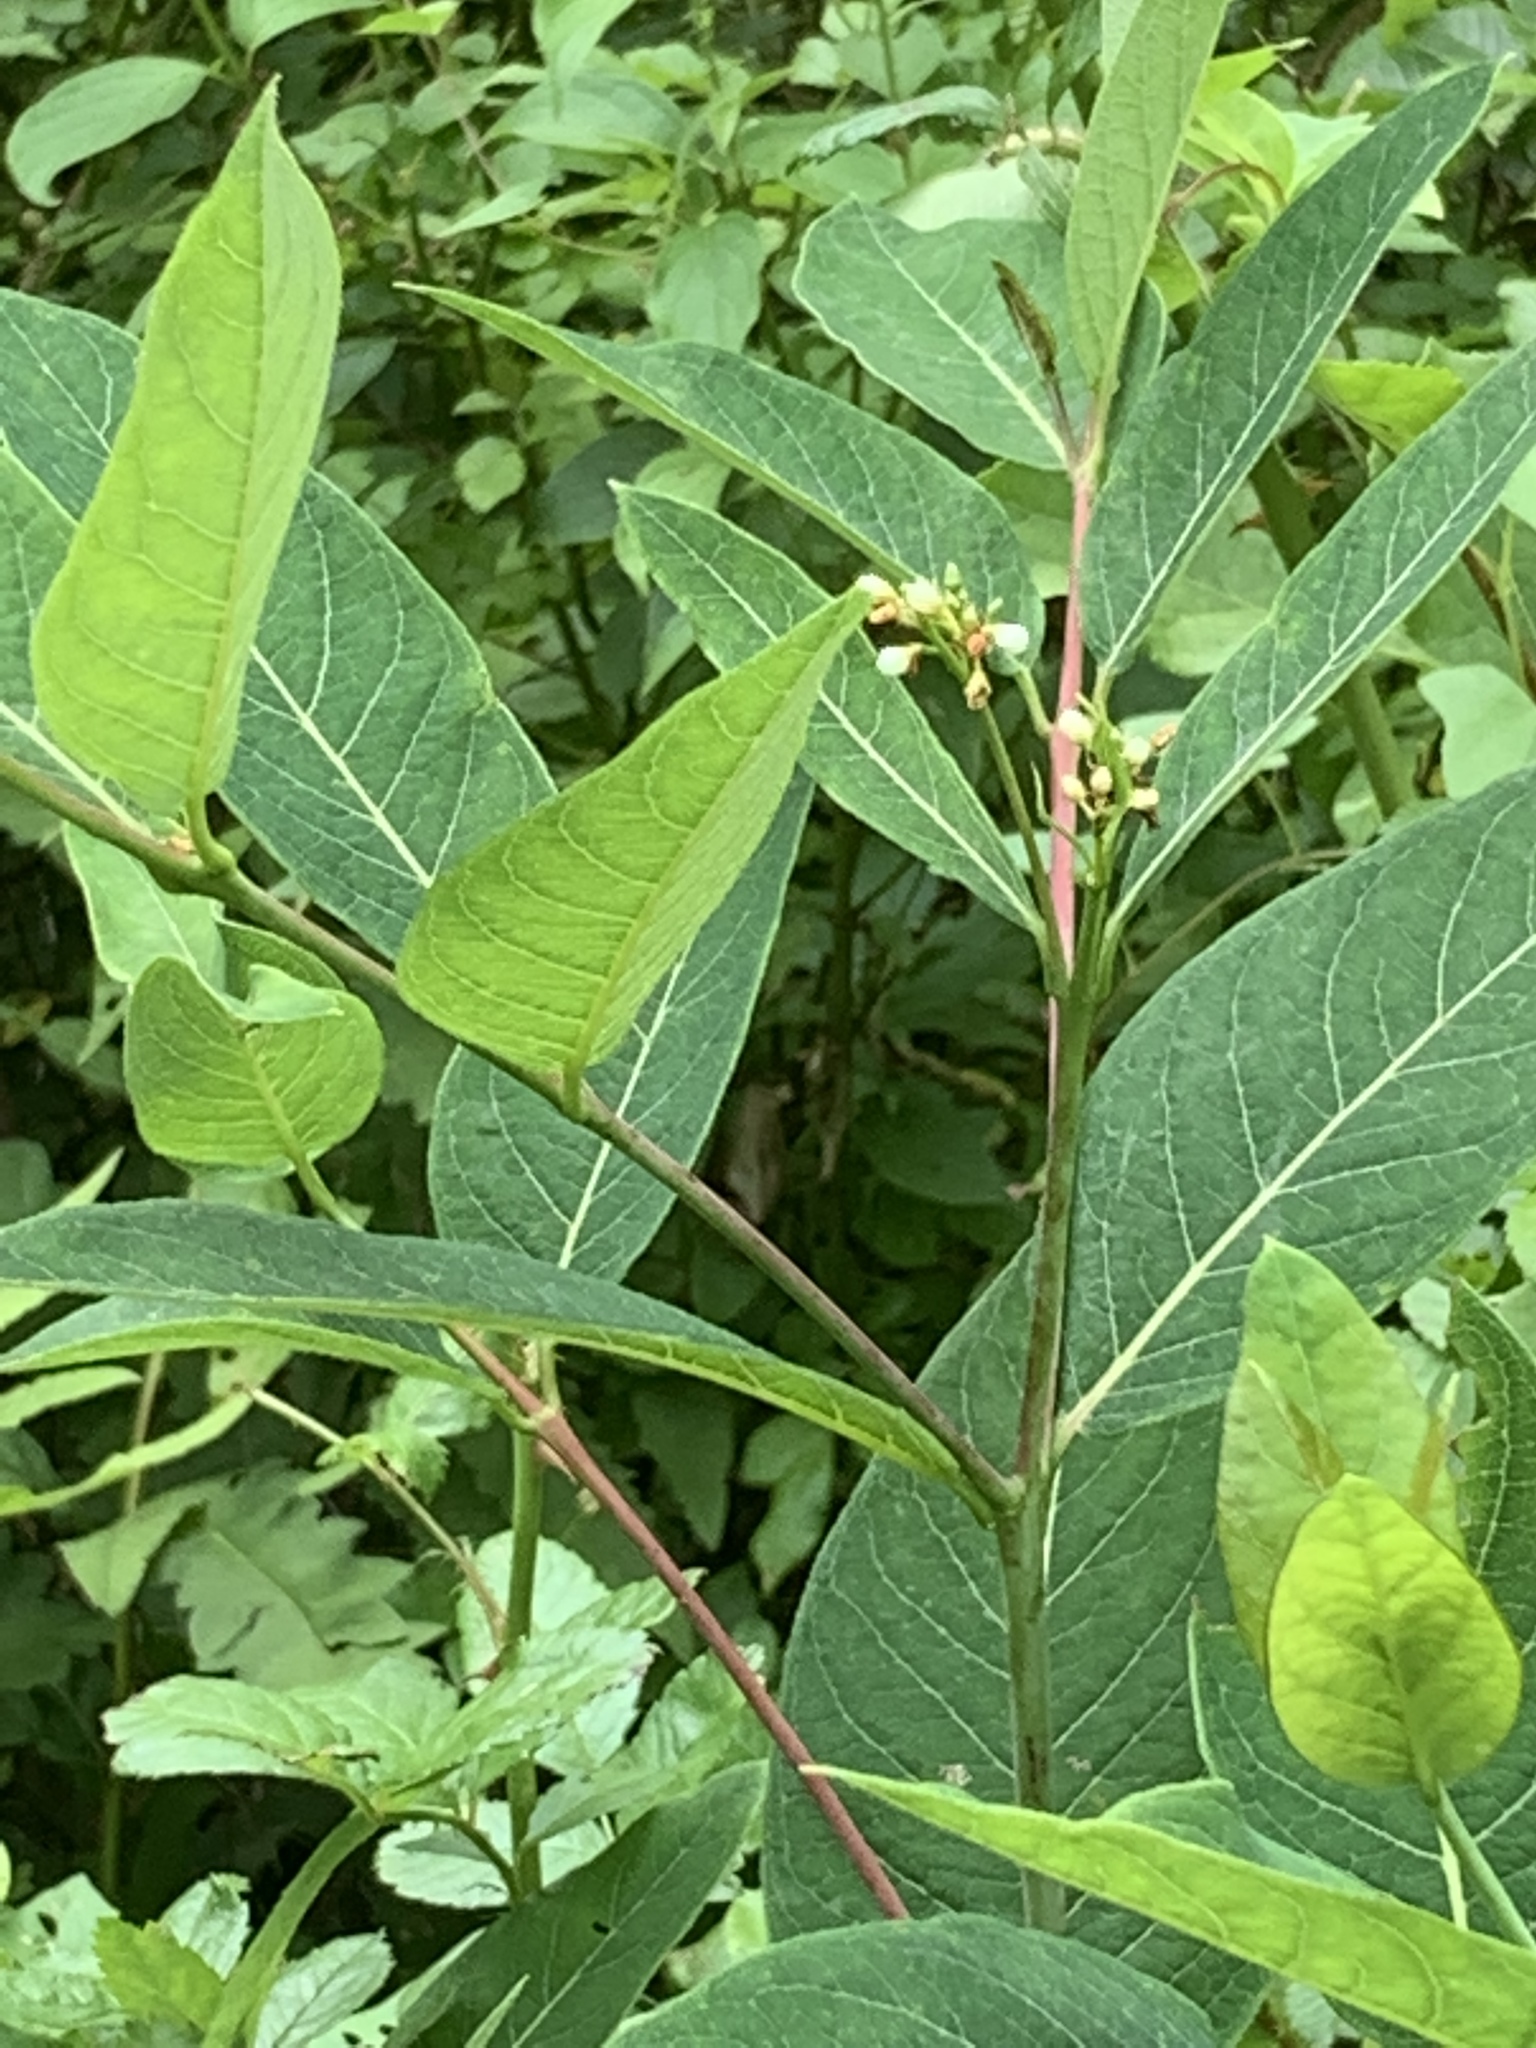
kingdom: Plantae
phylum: Tracheophyta
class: Magnoliopsida
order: Gentianales
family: Apocynaceae
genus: Apocynum
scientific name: Apocynum cannabinum
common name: Hemp dogbane
